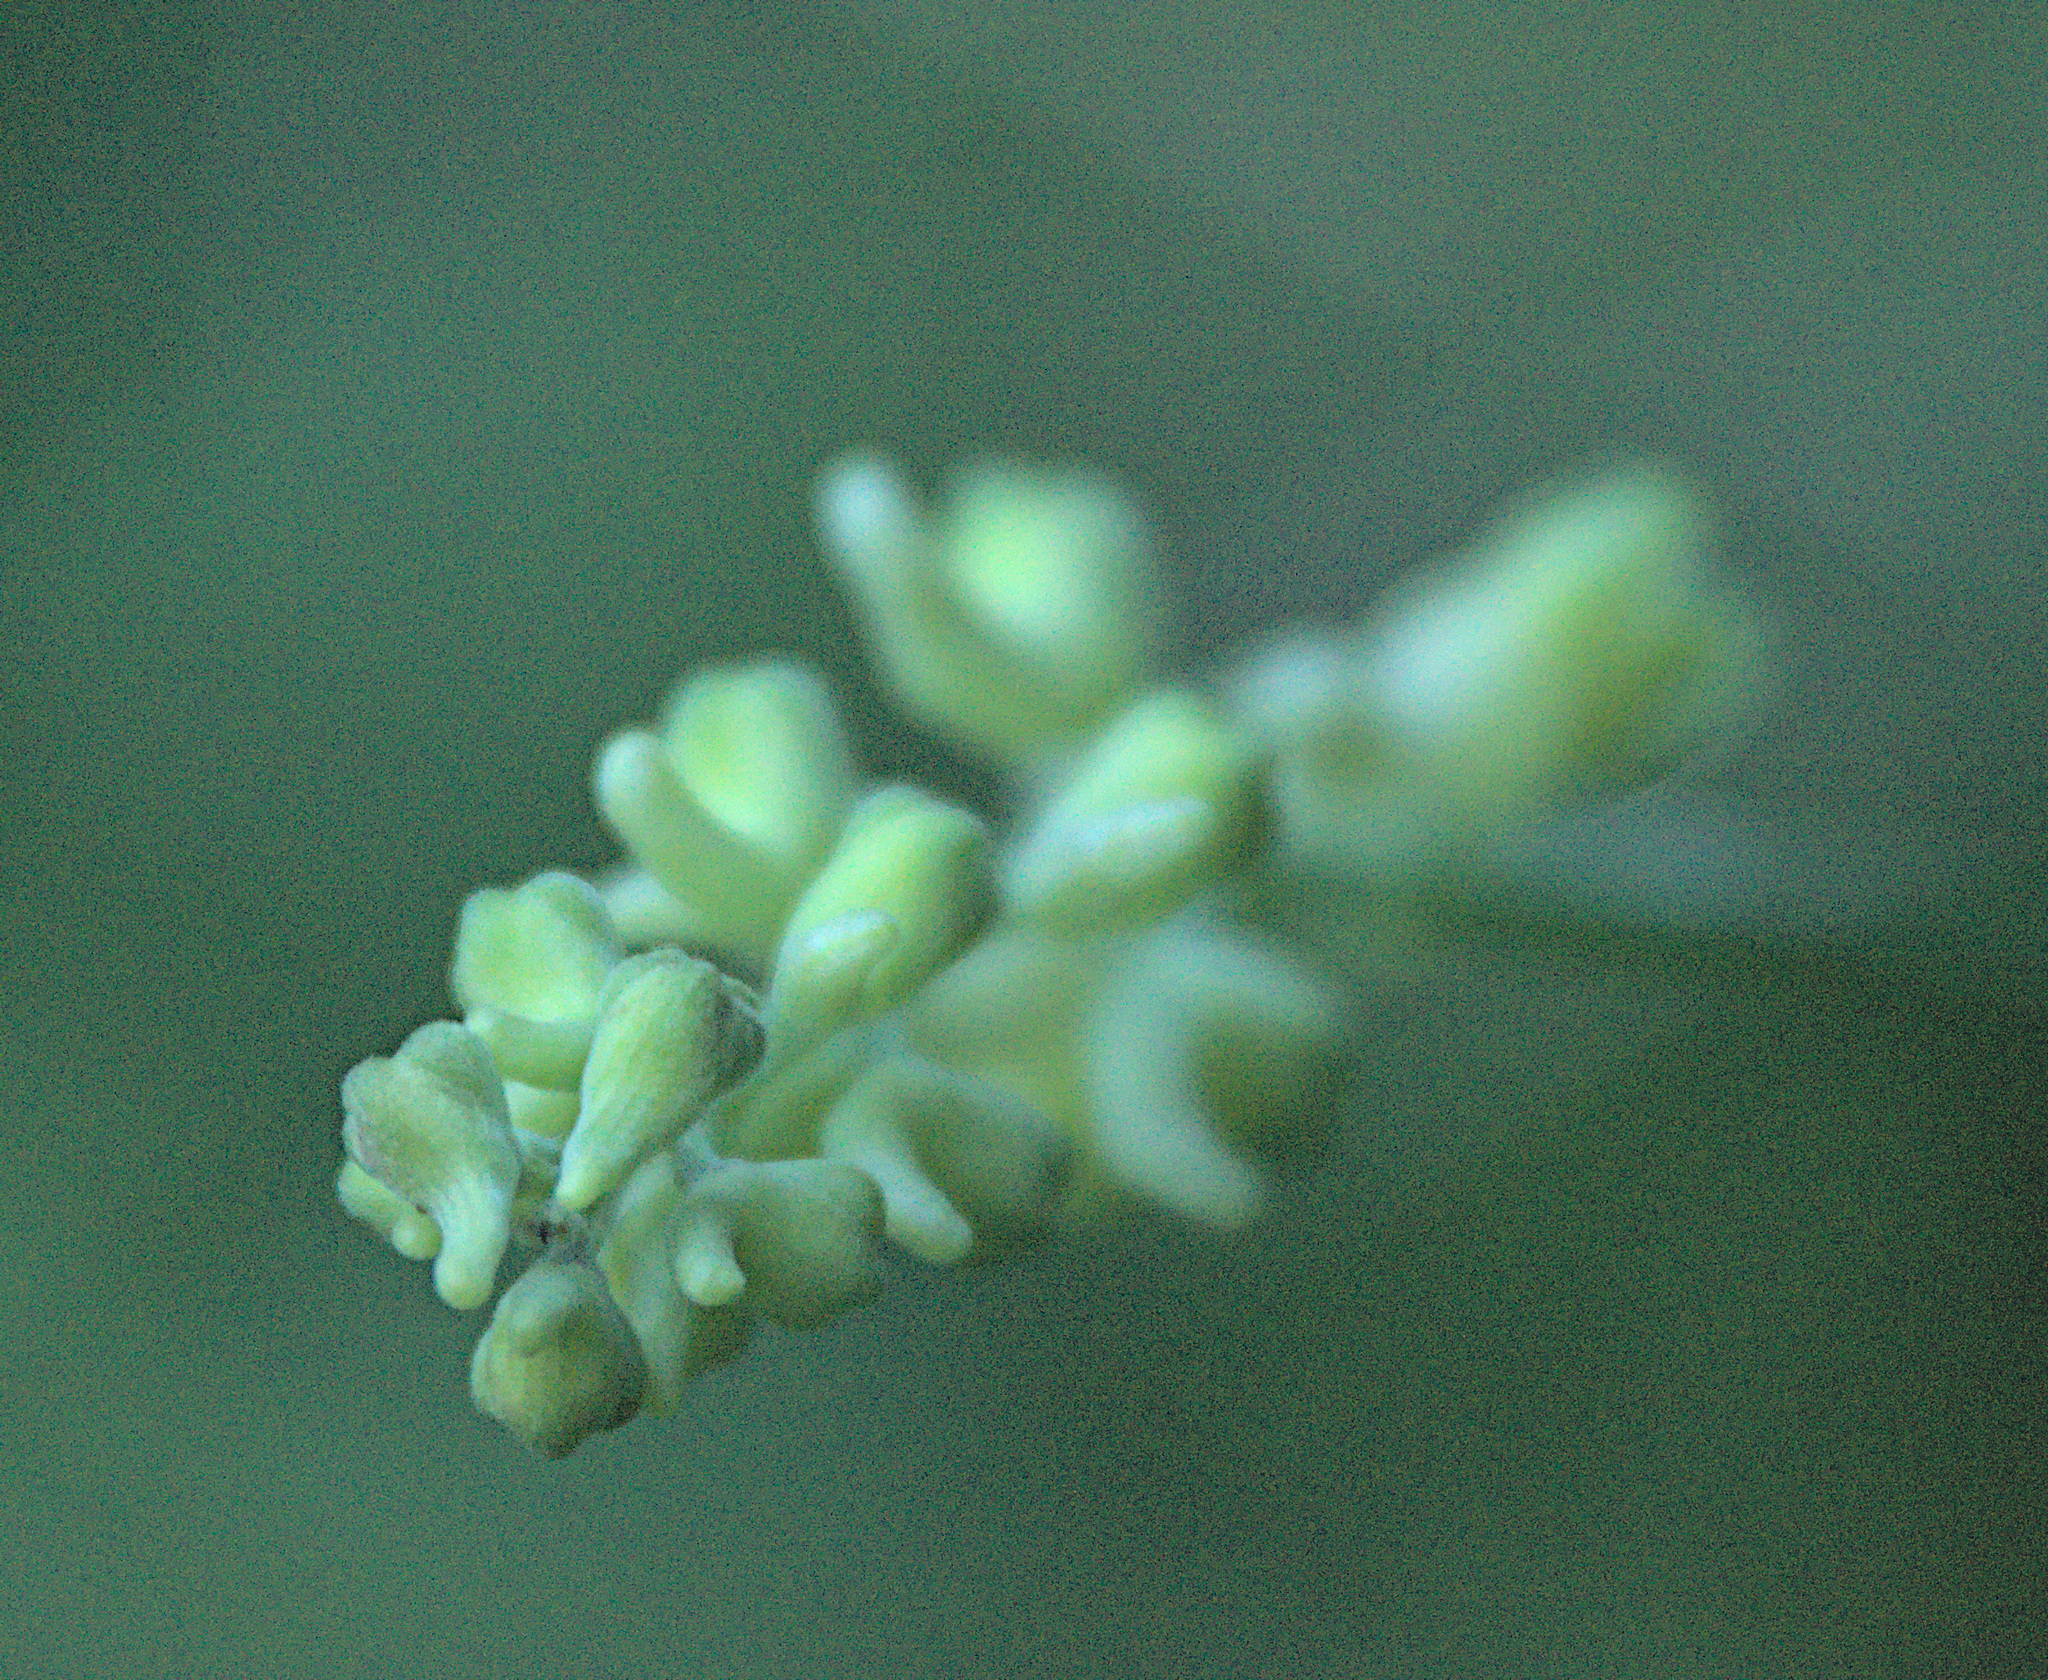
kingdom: Plantae
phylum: Tracheophyta
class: Magnoliopsida
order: Ranunculales
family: Ranunculaceae
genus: Aconitum
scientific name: Aconitum barbatum
